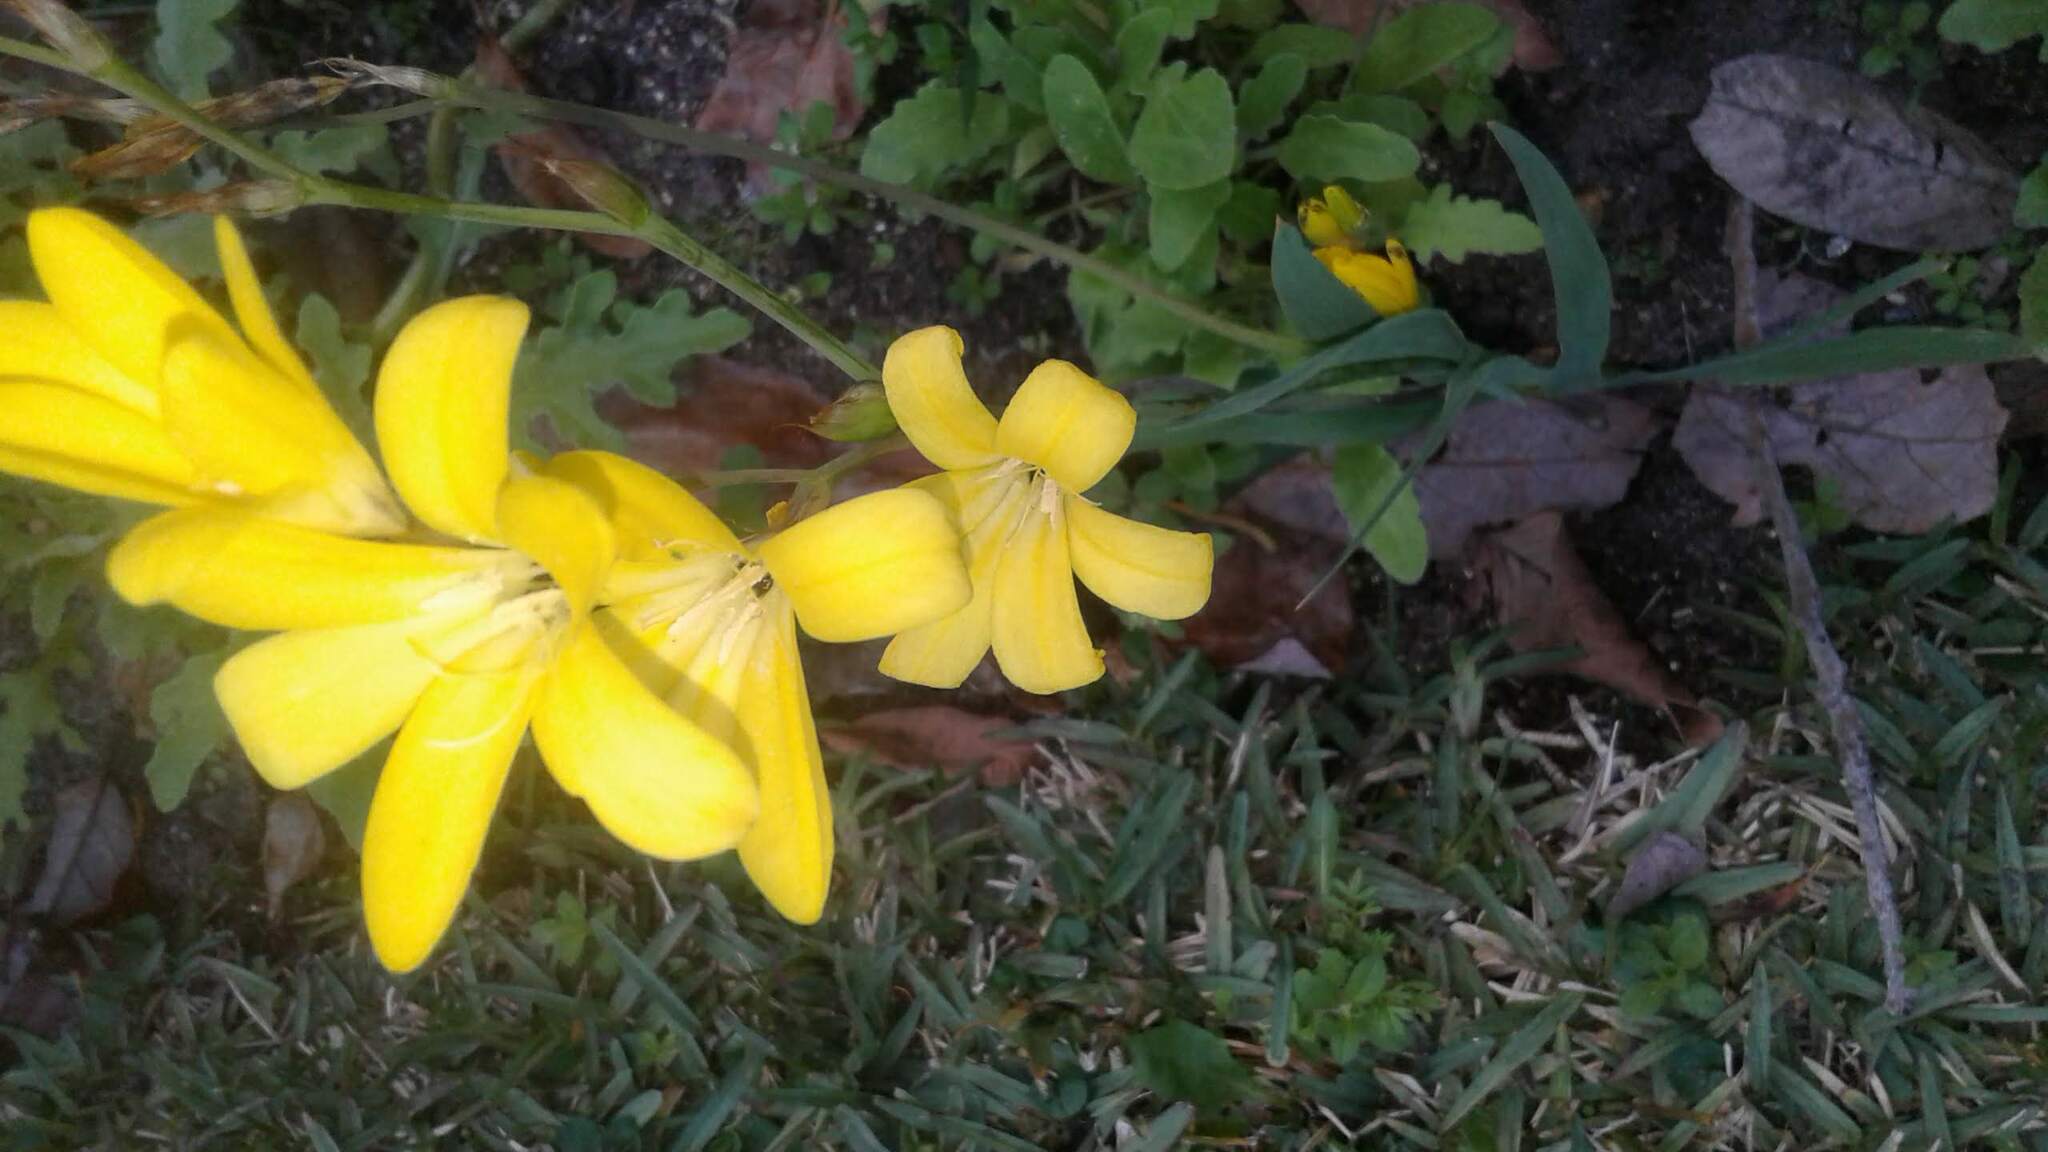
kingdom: Plantae
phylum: Tracheophyta
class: Liliopsida
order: Asparagales
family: Iridaceae
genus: Sparaxis
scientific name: Sparaxis grandiflora
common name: Plain harlequin-flower
